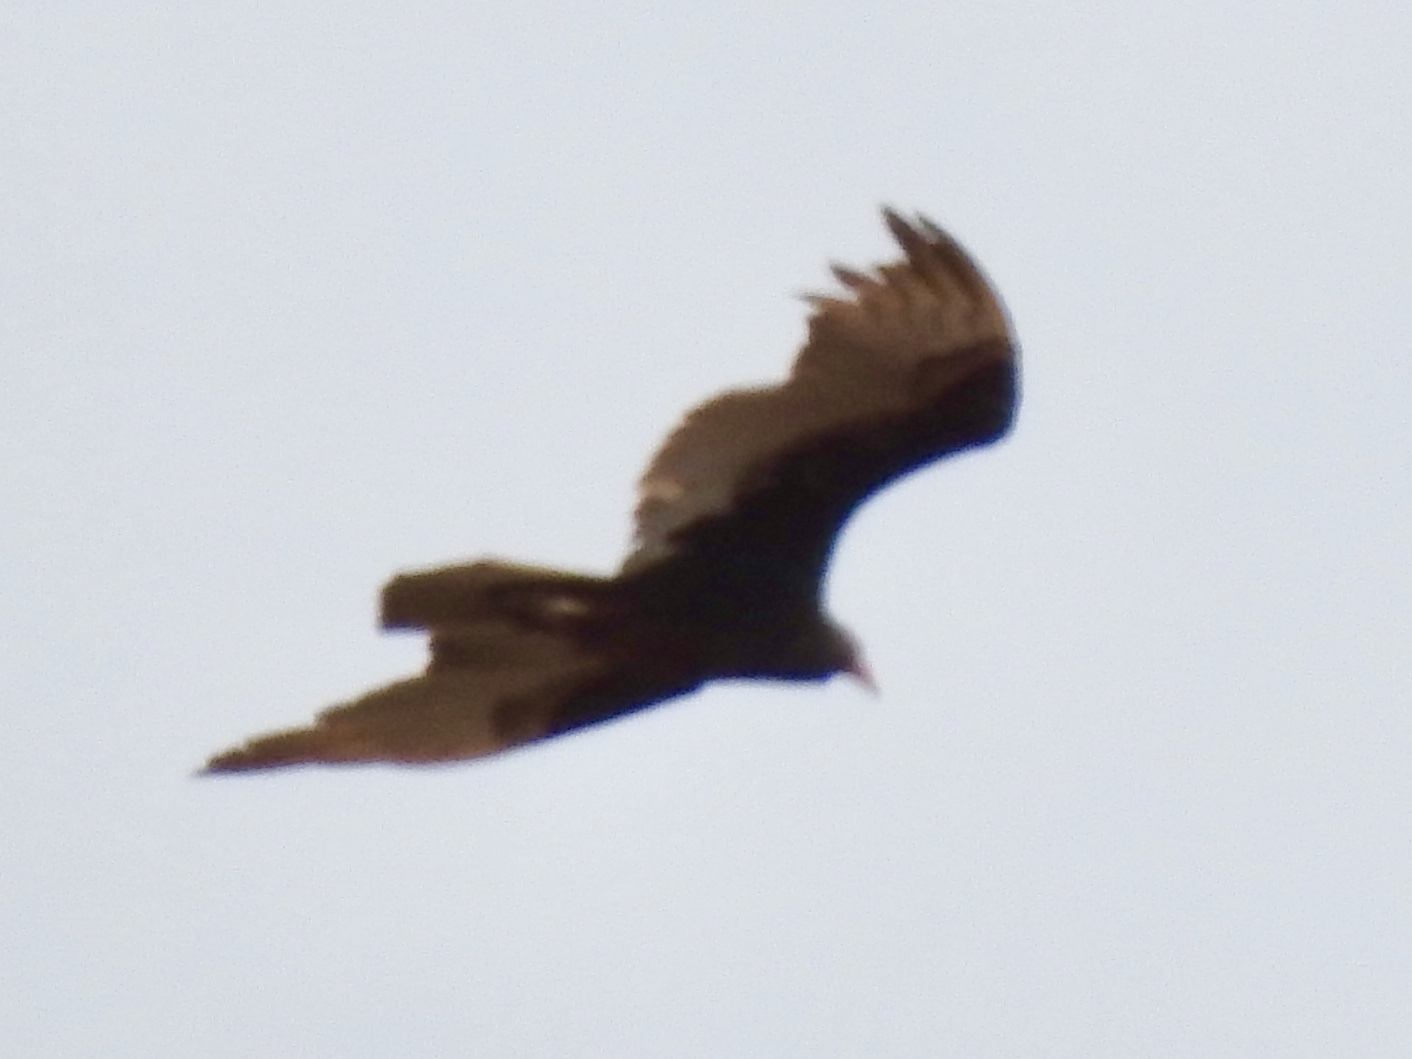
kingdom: Animalia
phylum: Chordata
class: Aves
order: Accipitriformes
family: Cathartidae
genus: Cathartes
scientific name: Cathartes aura
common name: Turkey vulture
